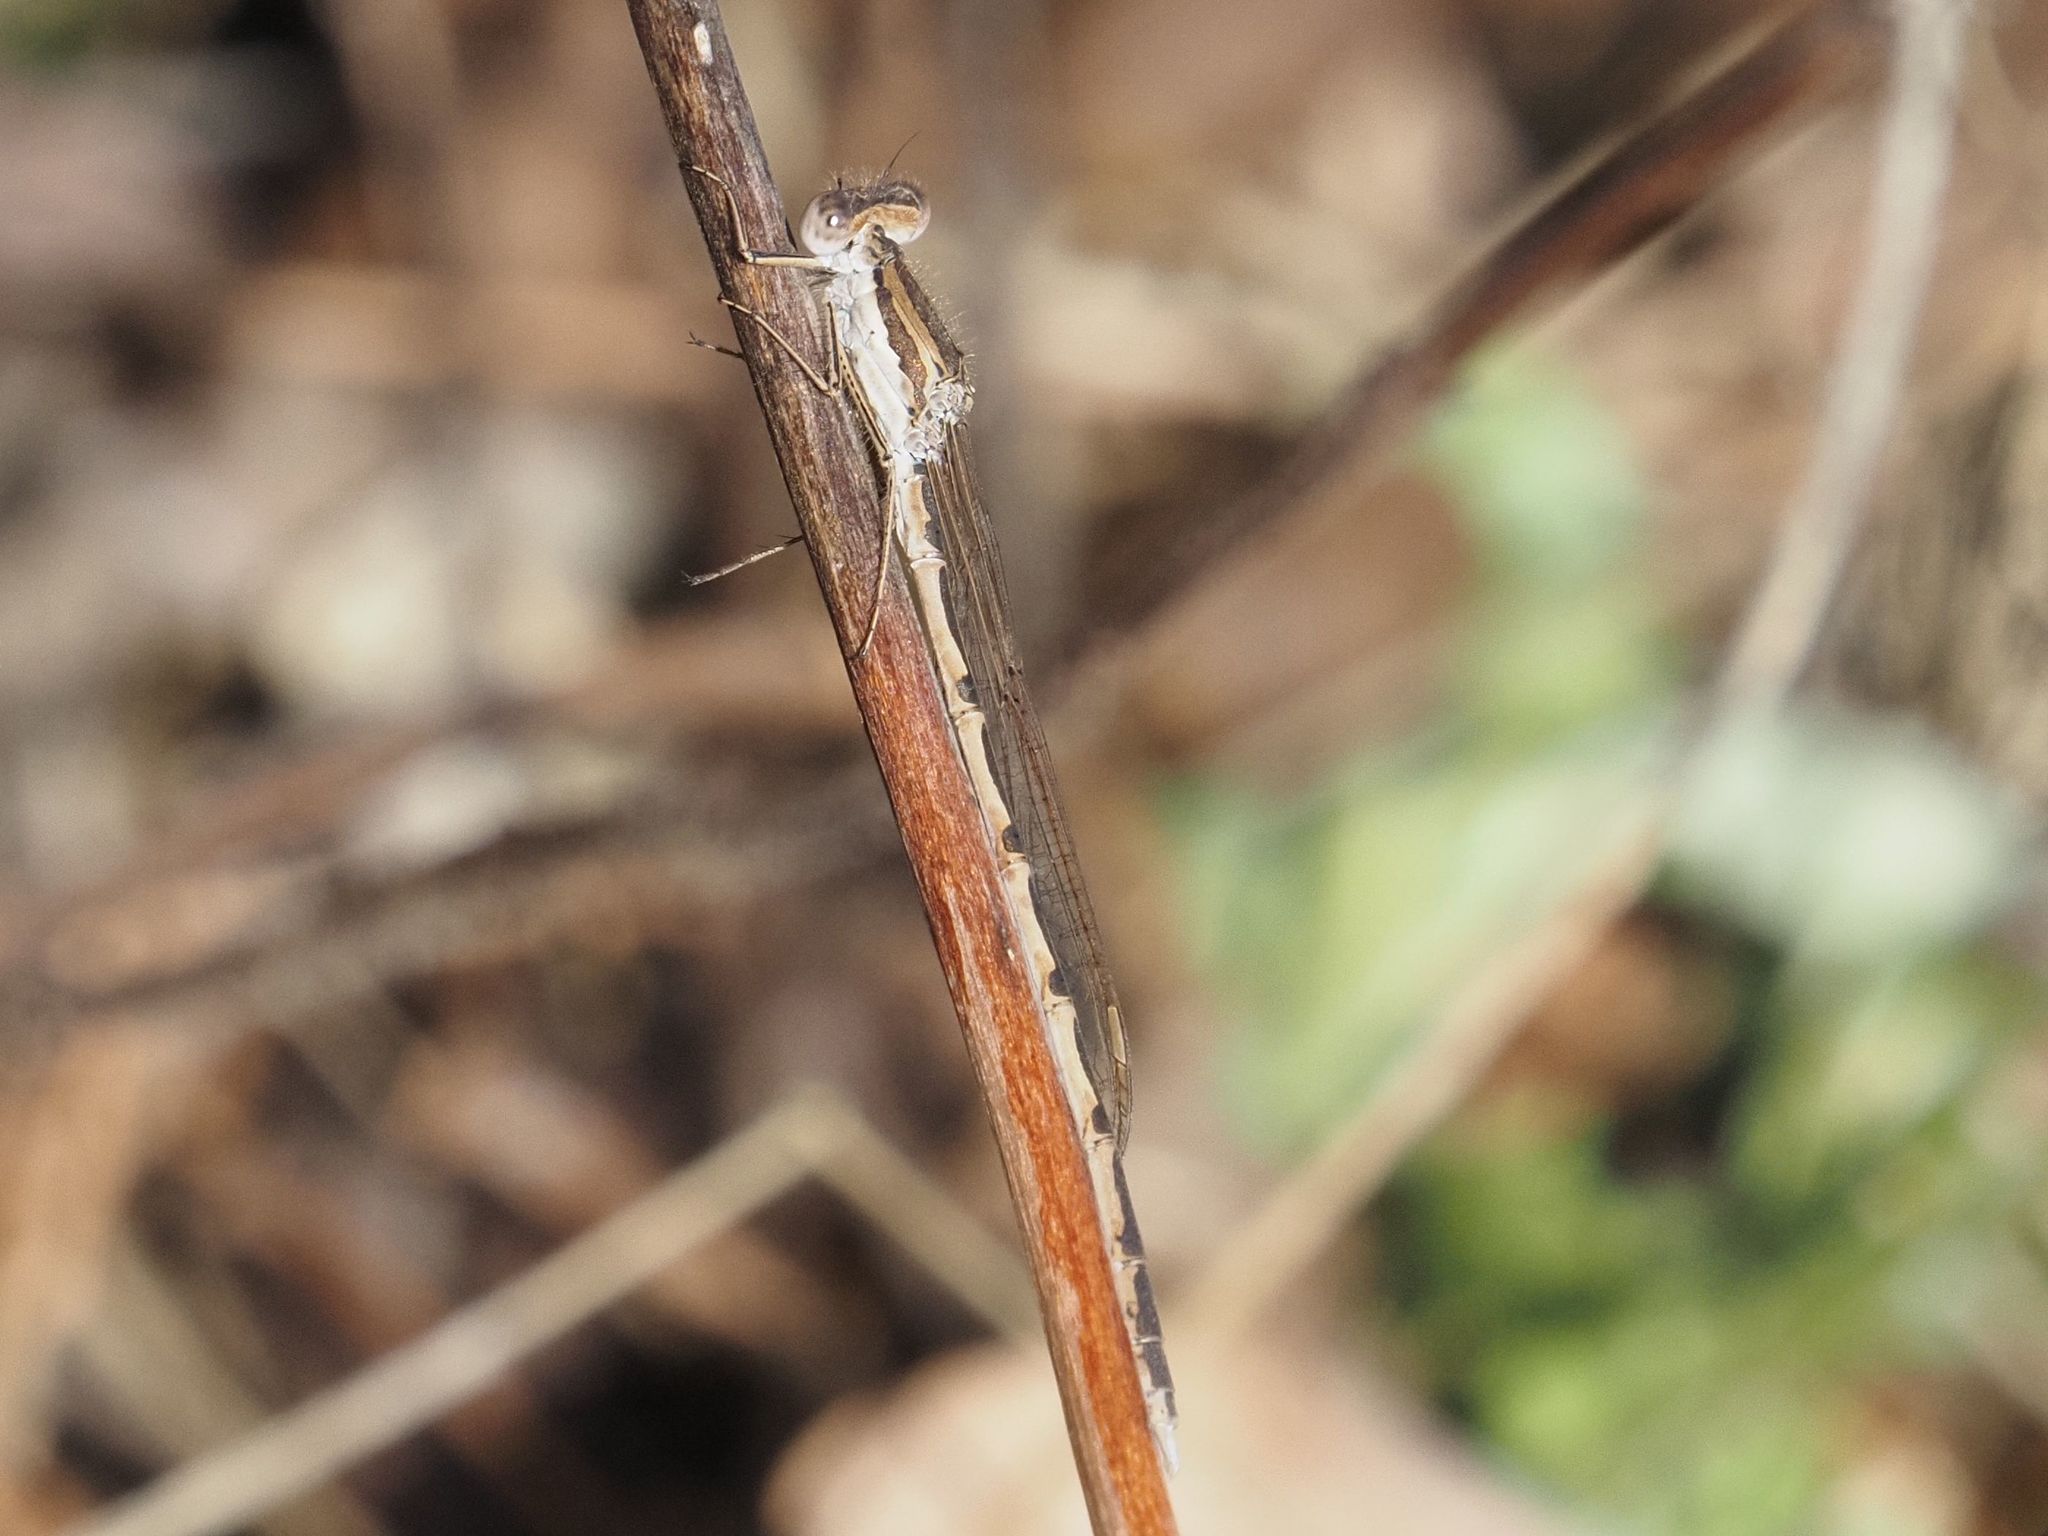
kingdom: Animalia
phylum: Arthropoda
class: Insecta
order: Odonata
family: Lestidae
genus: Sympecma
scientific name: Sympecma fusca
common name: Common winter damsel
